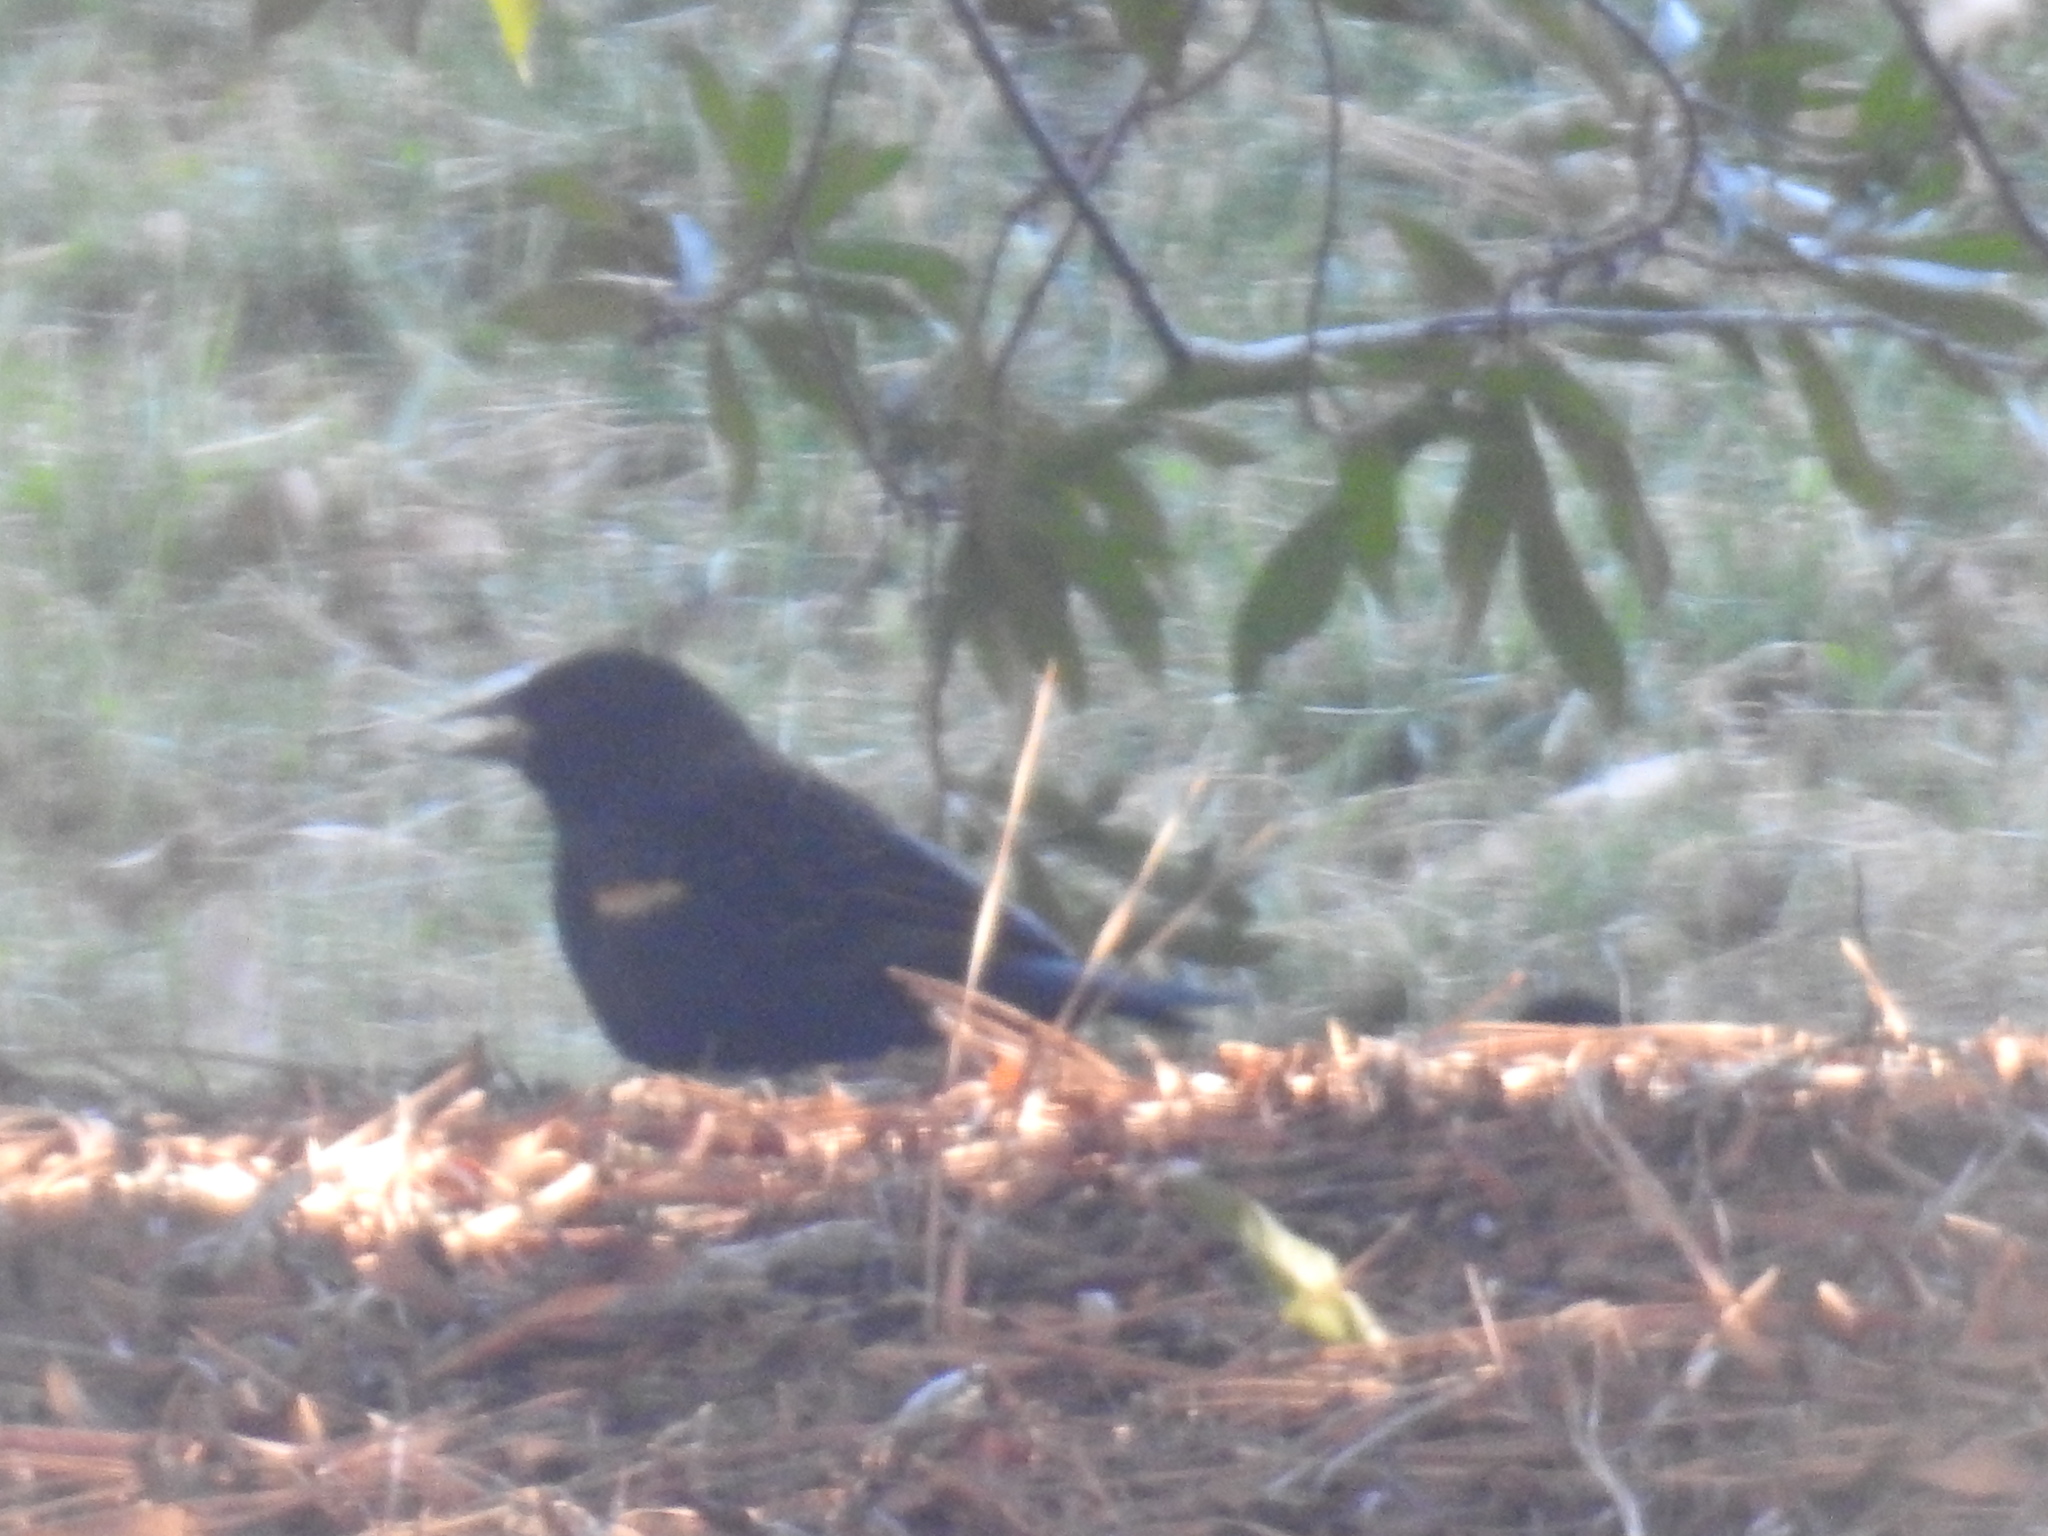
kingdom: Animalia
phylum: Chordata
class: Aves
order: Passeriformes
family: Icteridae
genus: Agelaius
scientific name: Agelaius phoeniceus
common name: Red-winged blackbird
